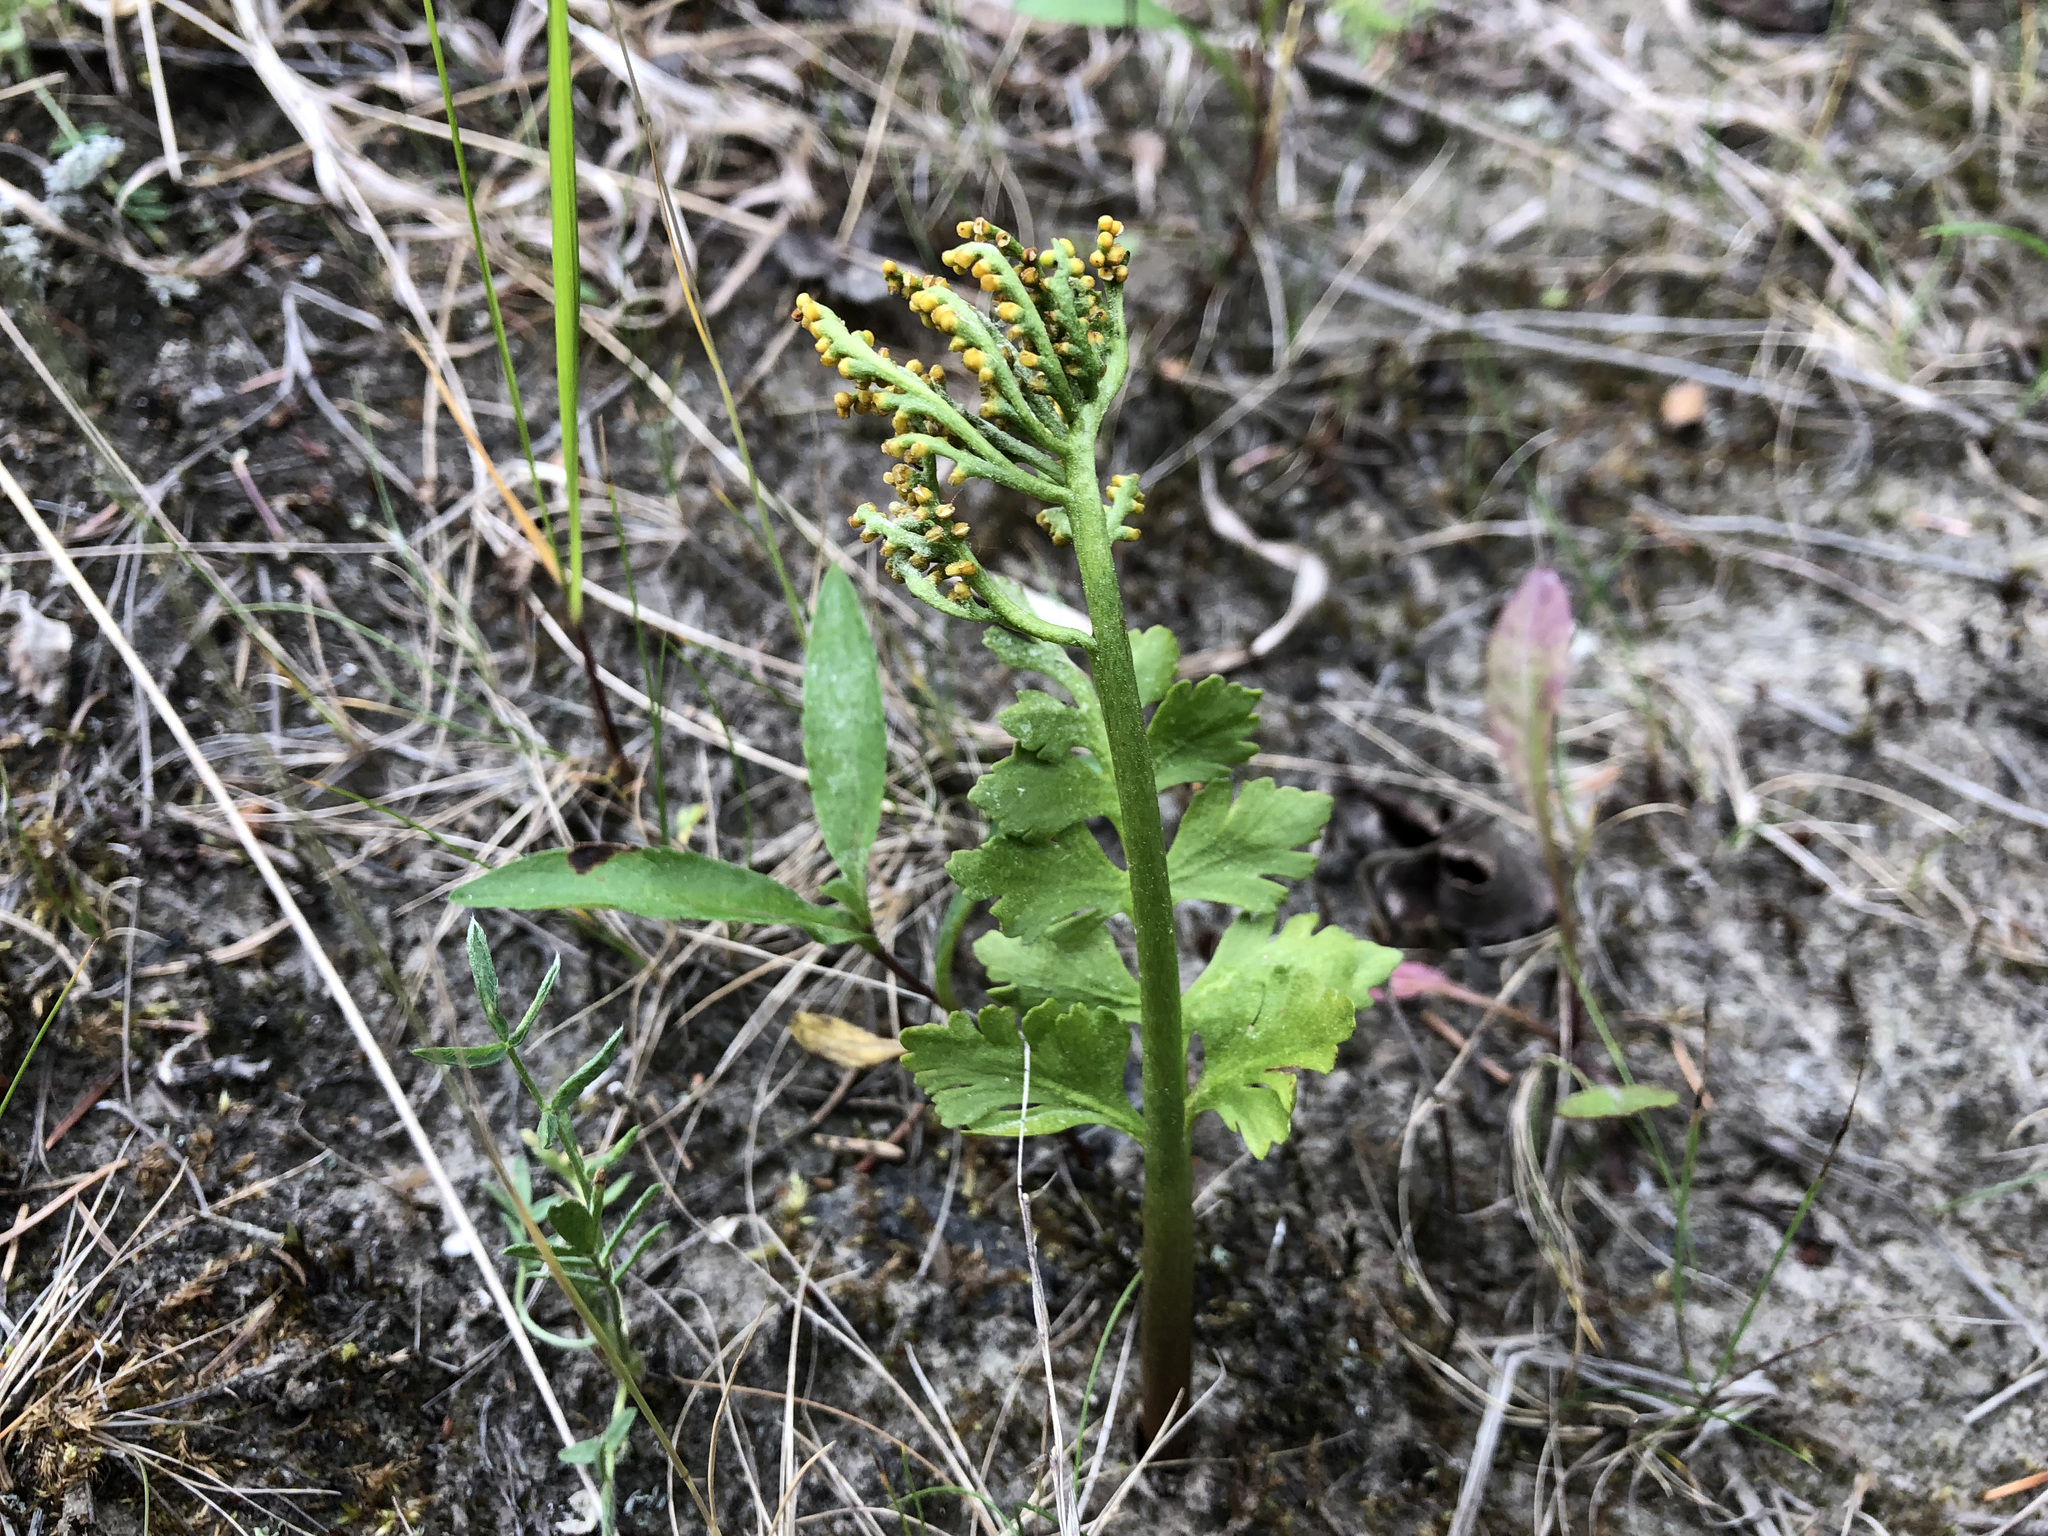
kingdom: Plantae
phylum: Tracheophyta
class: Polypodiopsida
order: Ophioglossales
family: Ophioglossaceae
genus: Botrychium
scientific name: Botrychium alaskense
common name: Alaska moonwort
